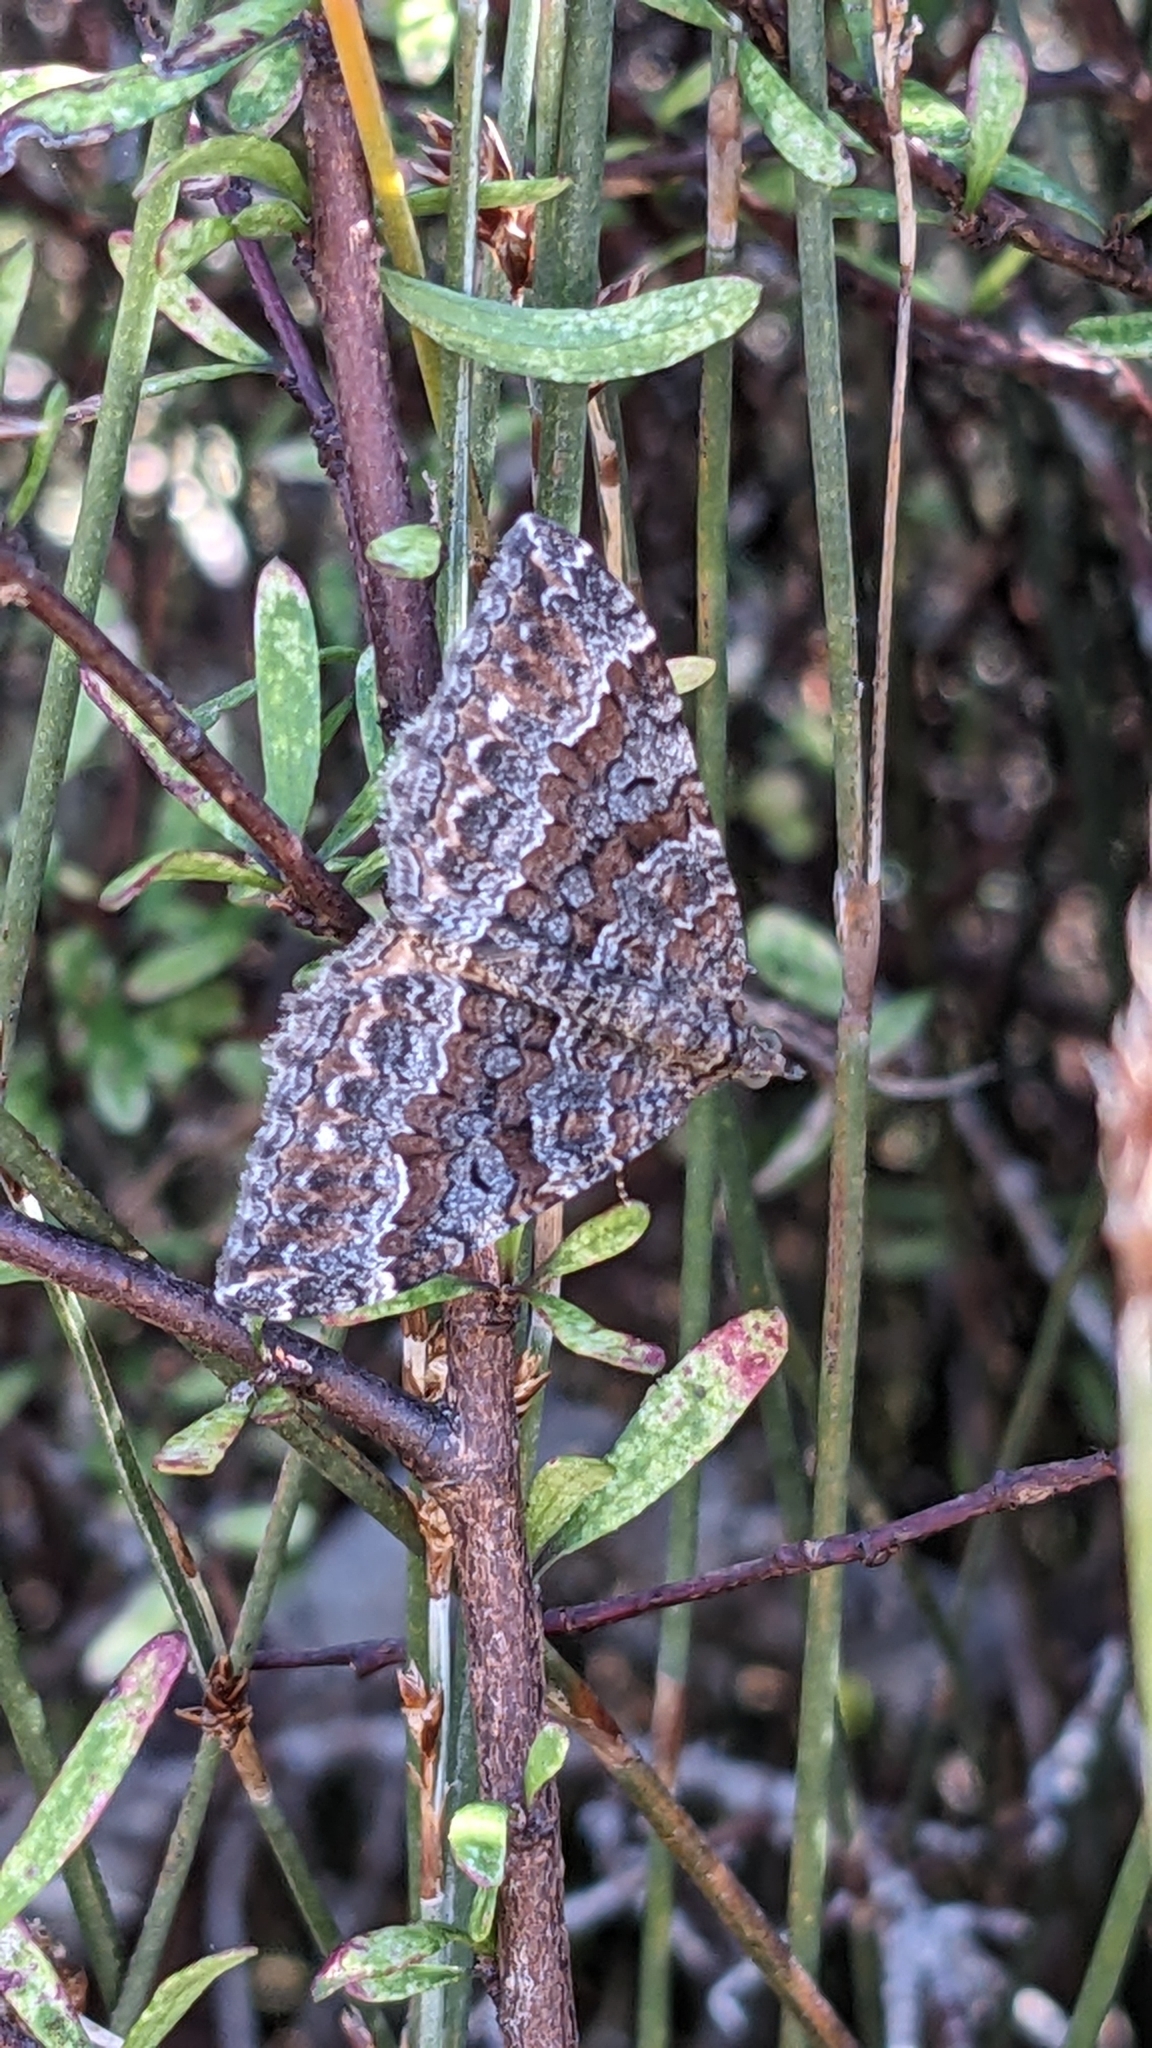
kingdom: Animalia
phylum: Arthropoda
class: Insecta
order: Lepidoptera
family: Geometridae
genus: Hydriomena
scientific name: Hydriomena deltoidata
